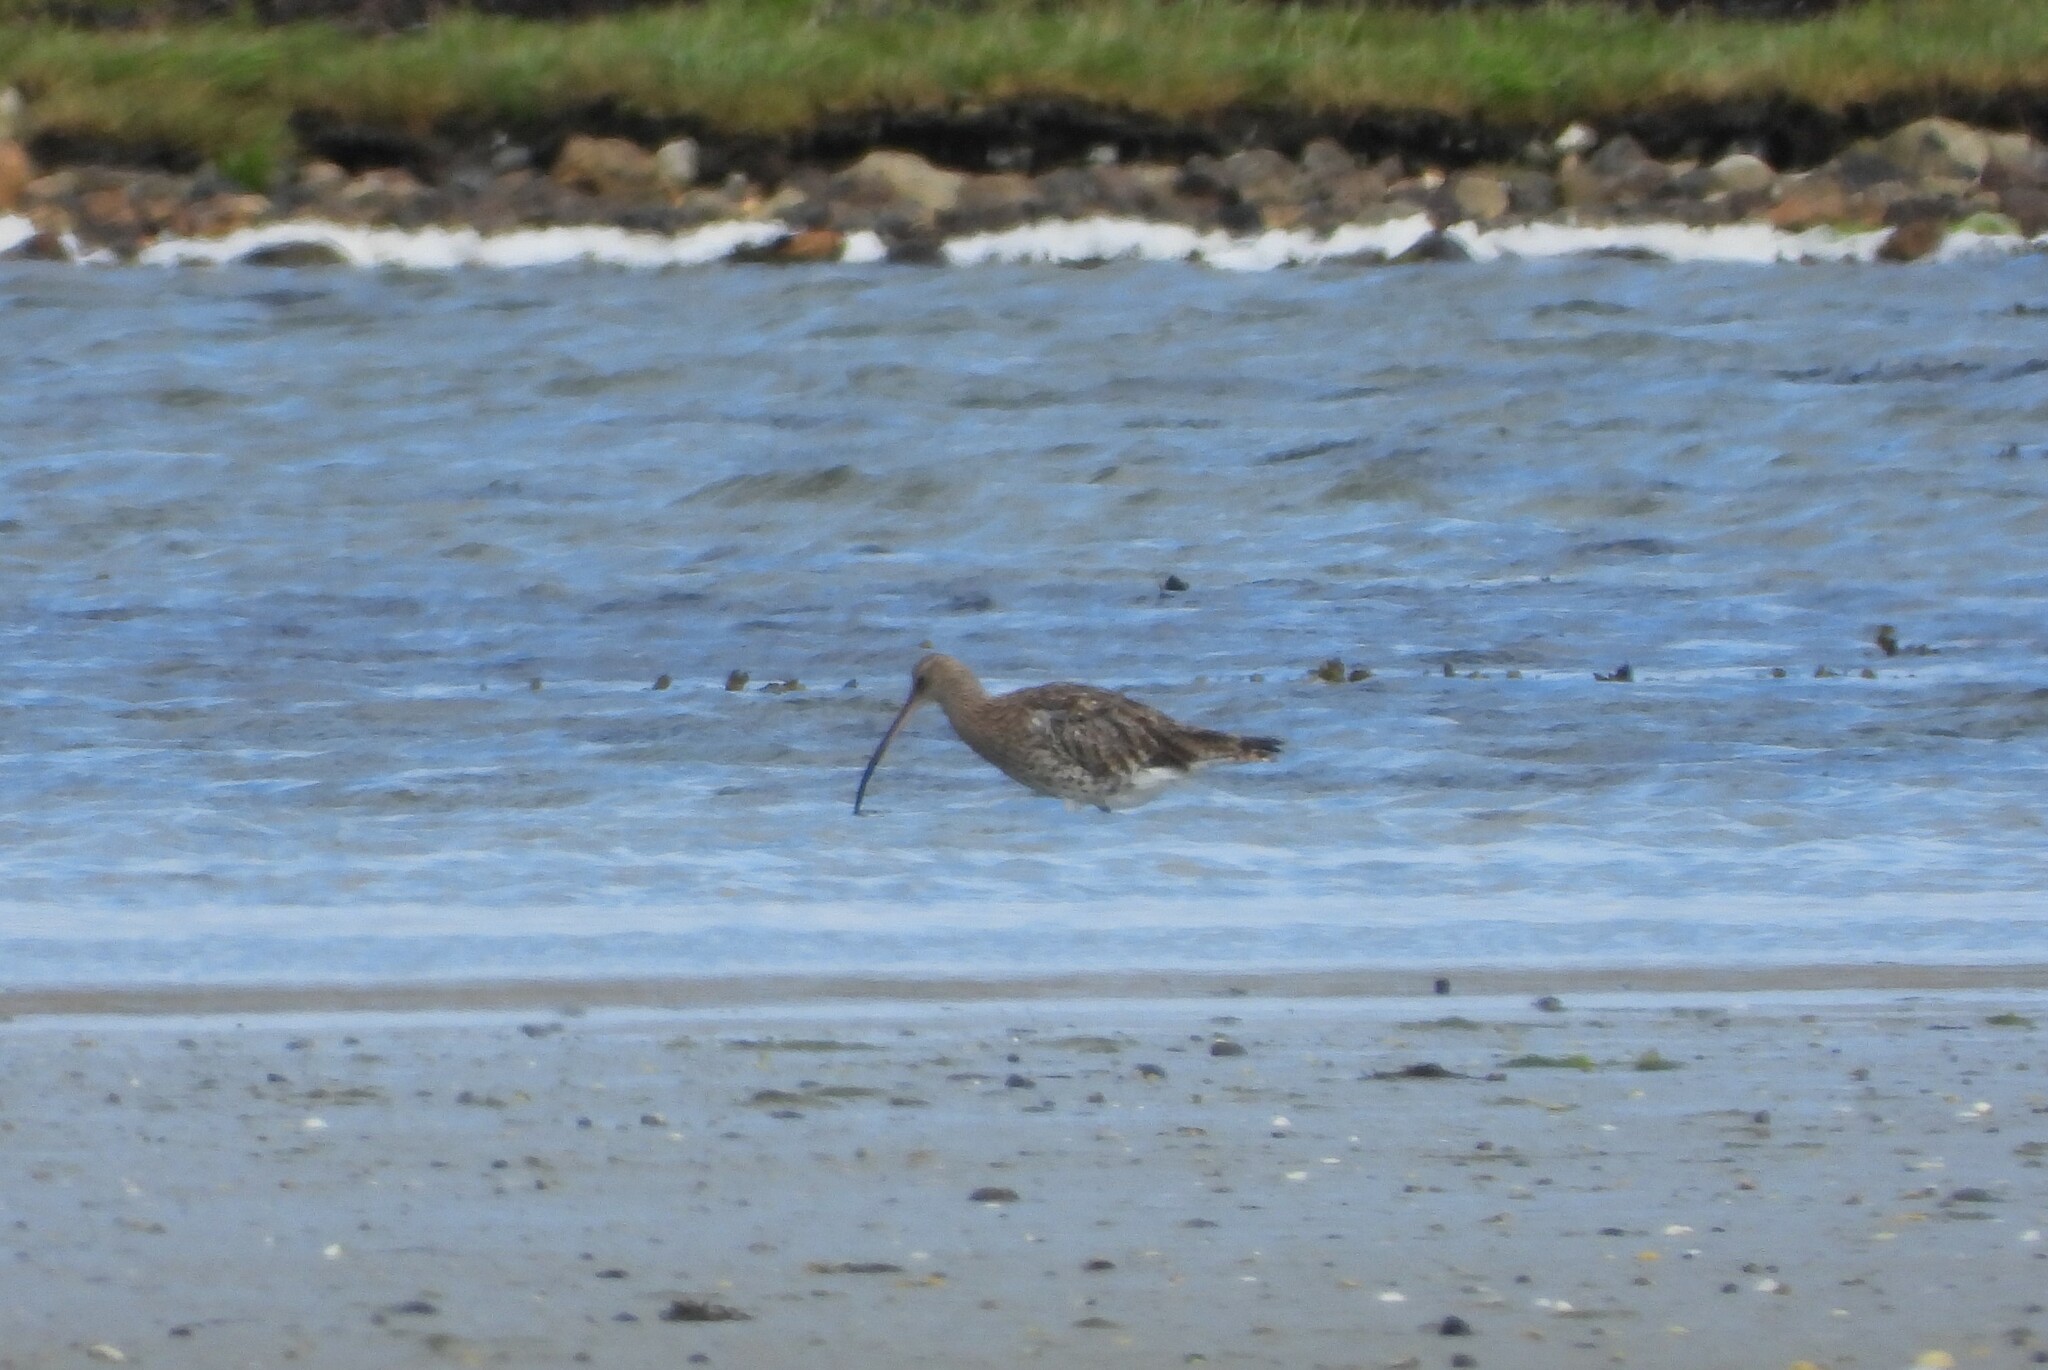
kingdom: Animalia
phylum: Chordata
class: Aves
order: Charadriiformes
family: Scolopacidae
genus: Numenius
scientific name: Numenius arquata
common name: Eurasian curlew
